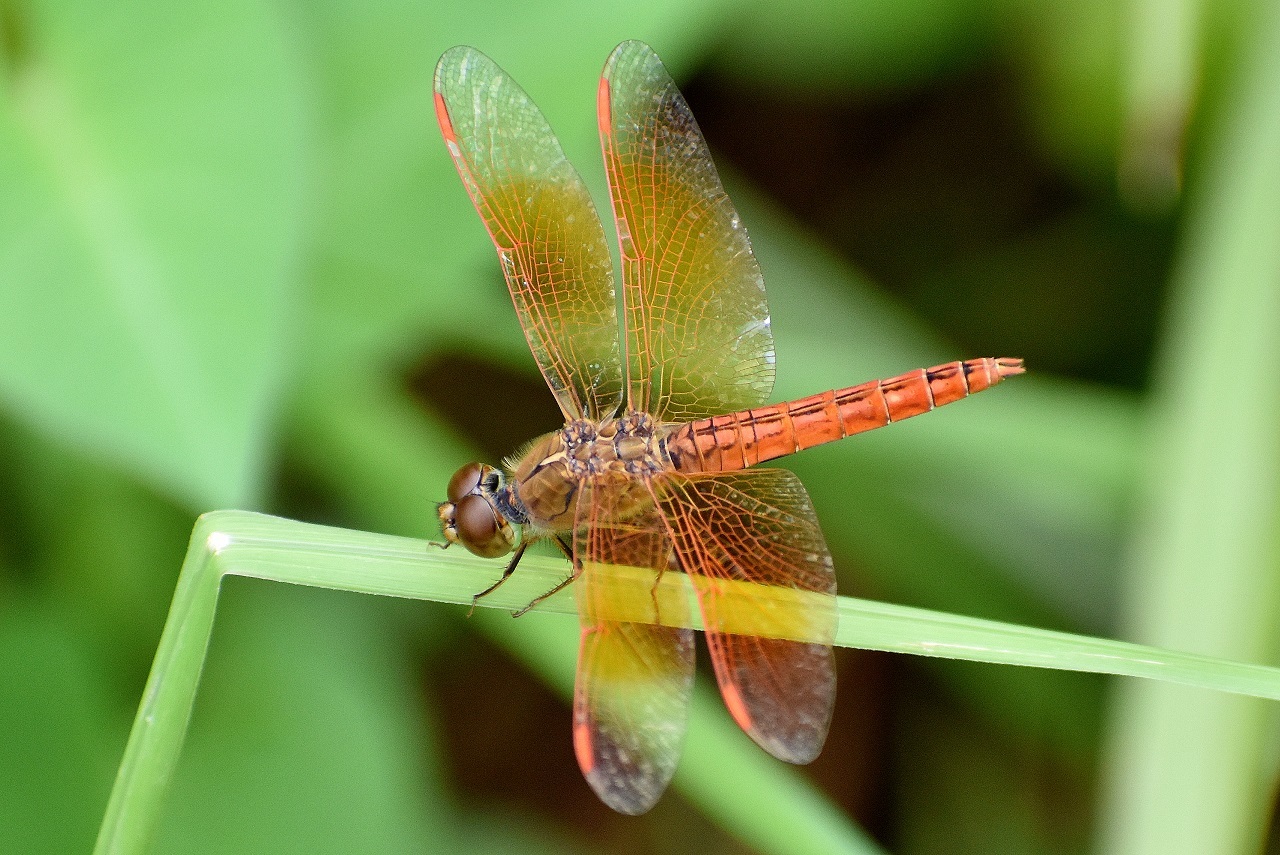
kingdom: Animalia
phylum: Arthropoda
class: Insecta
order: Odonata
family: Libellulidae
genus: Brachythemis
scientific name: Brachythemis contaminata
